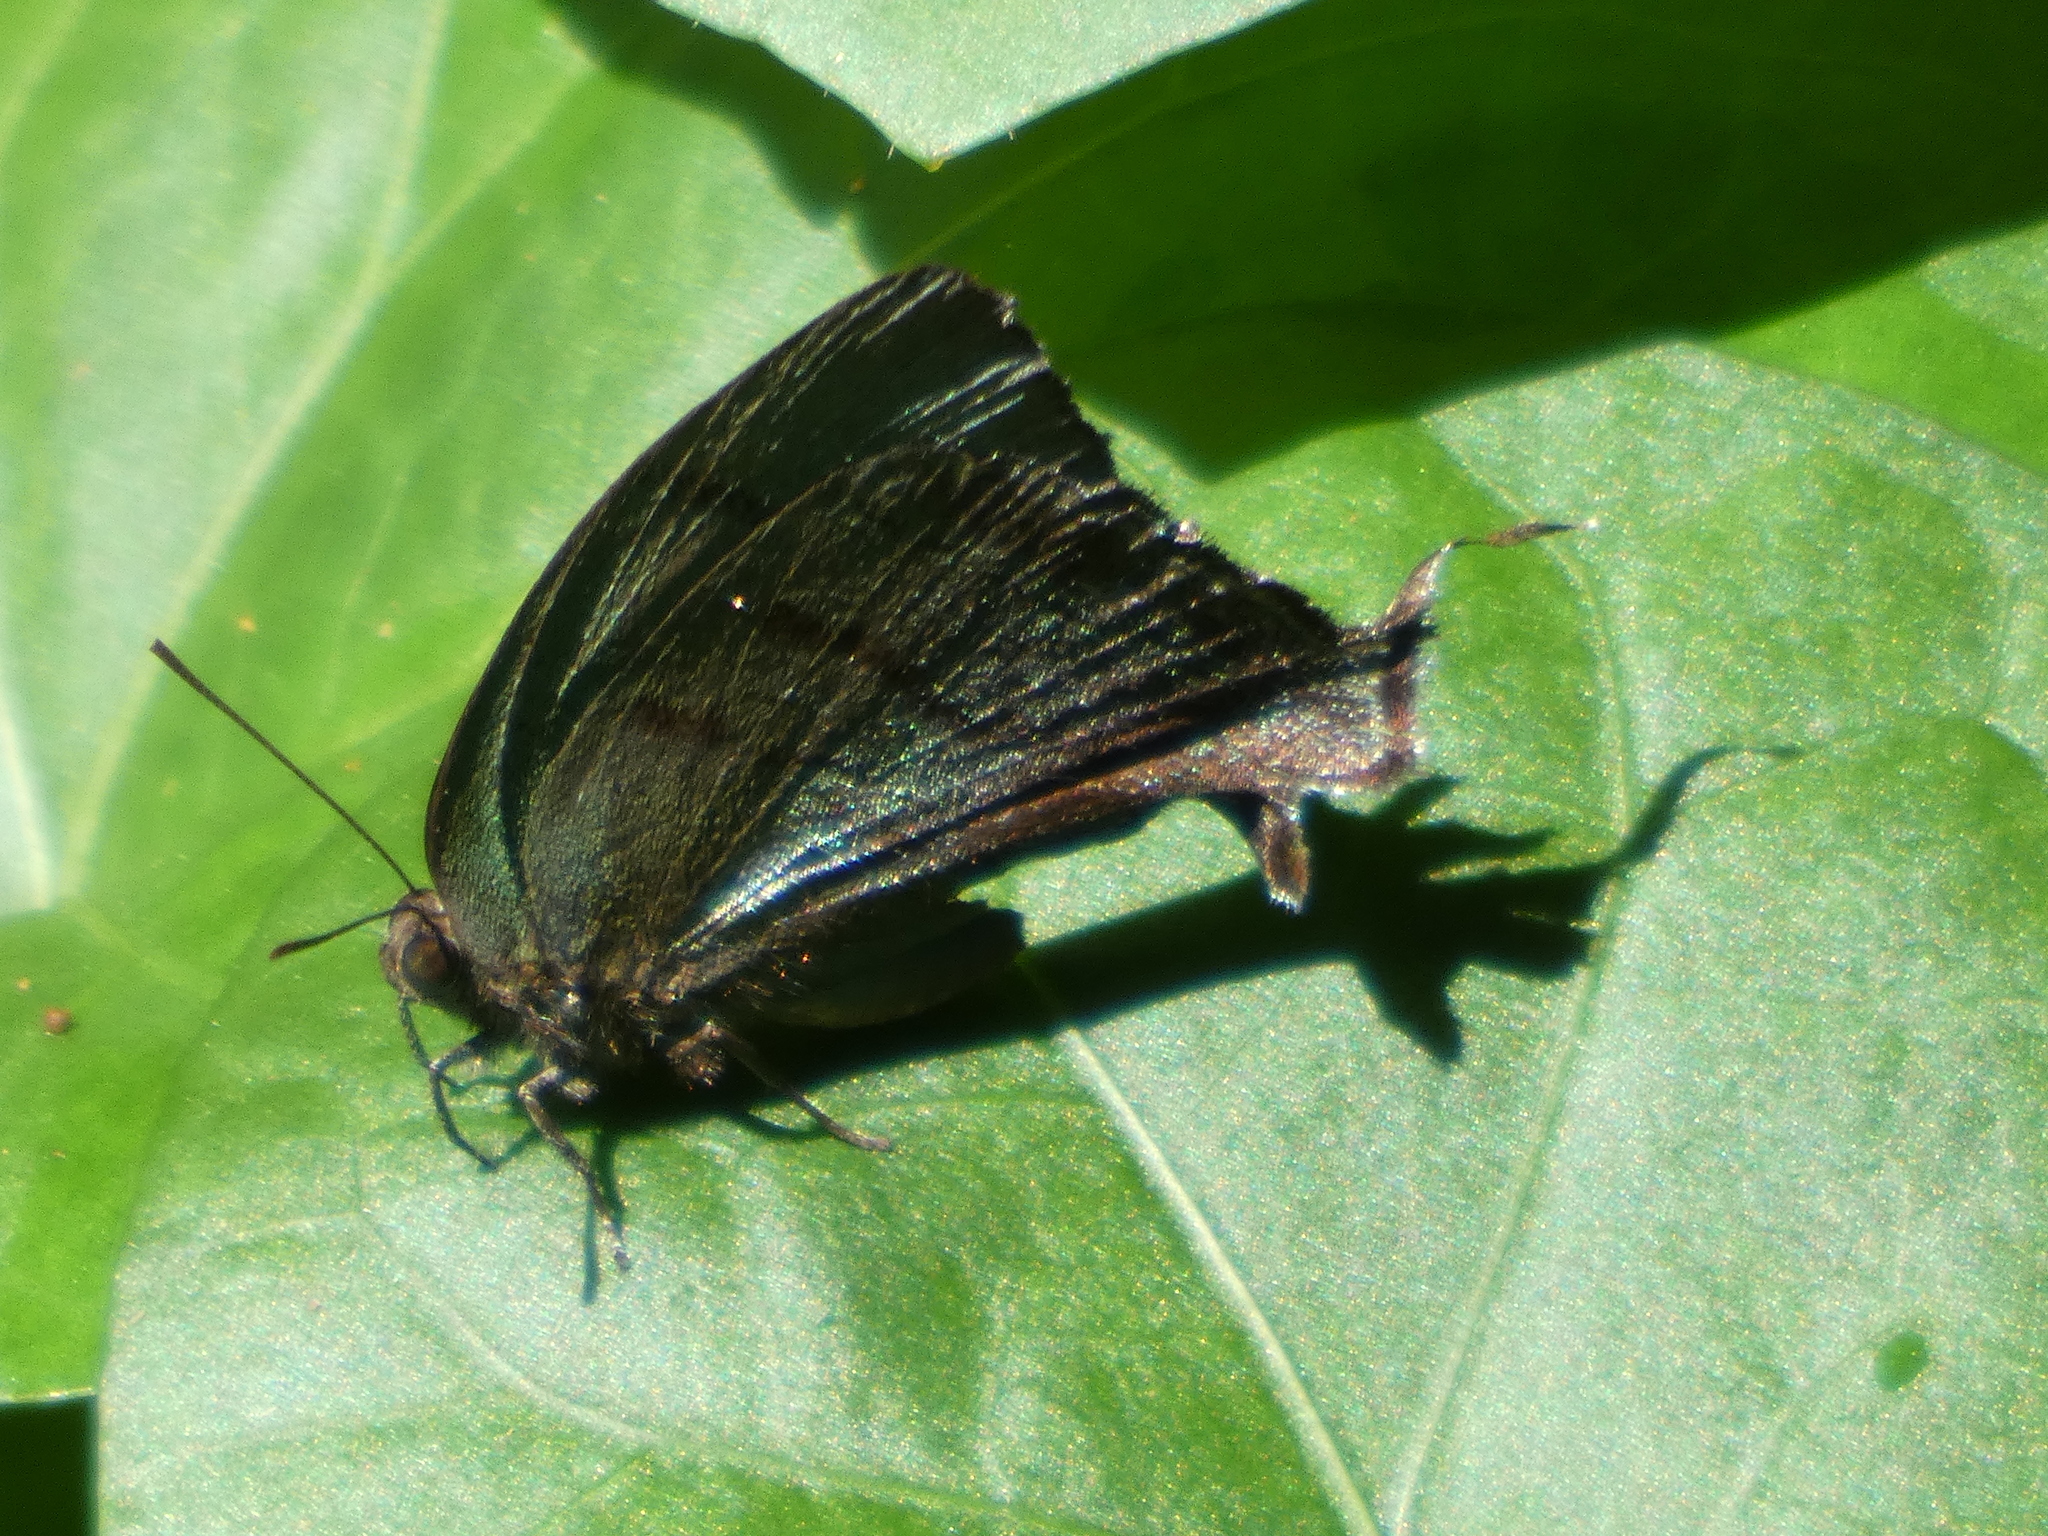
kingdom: Animalia
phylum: Arthropoda
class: Insecta
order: Lepidoptera
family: Lycaenidae
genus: Theritas
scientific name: Theritas
